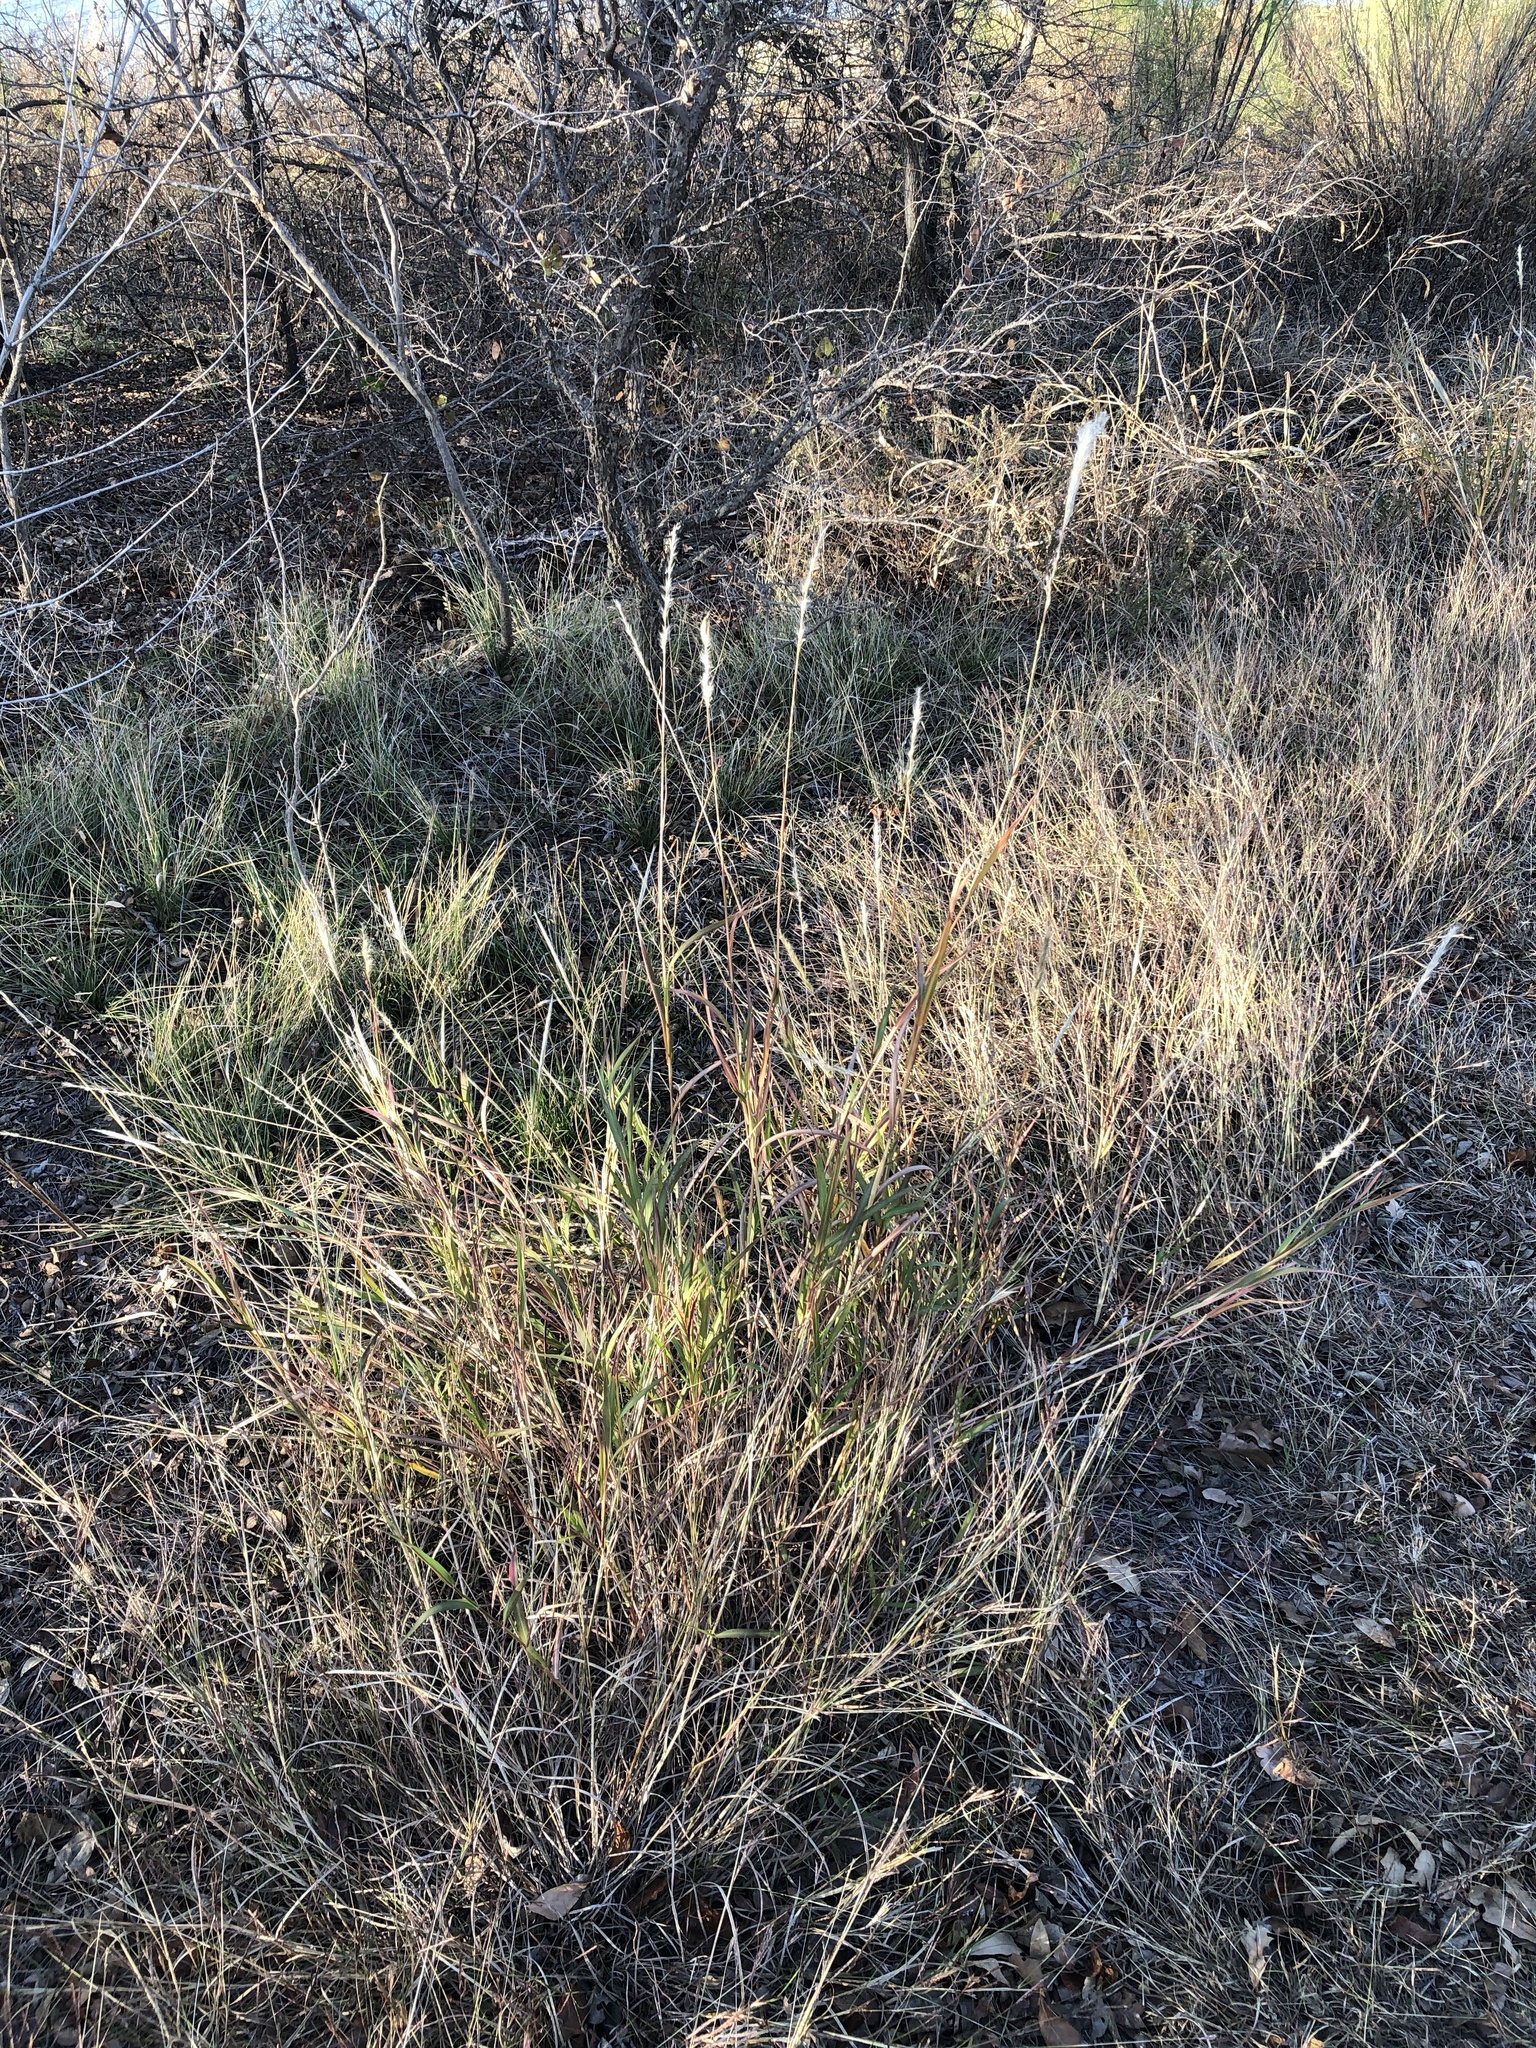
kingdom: Plantae
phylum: Tracheophyta
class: Liliopsida
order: Poales
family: Poaceae
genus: Bothriochloa
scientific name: Bothriochloa torreyana
